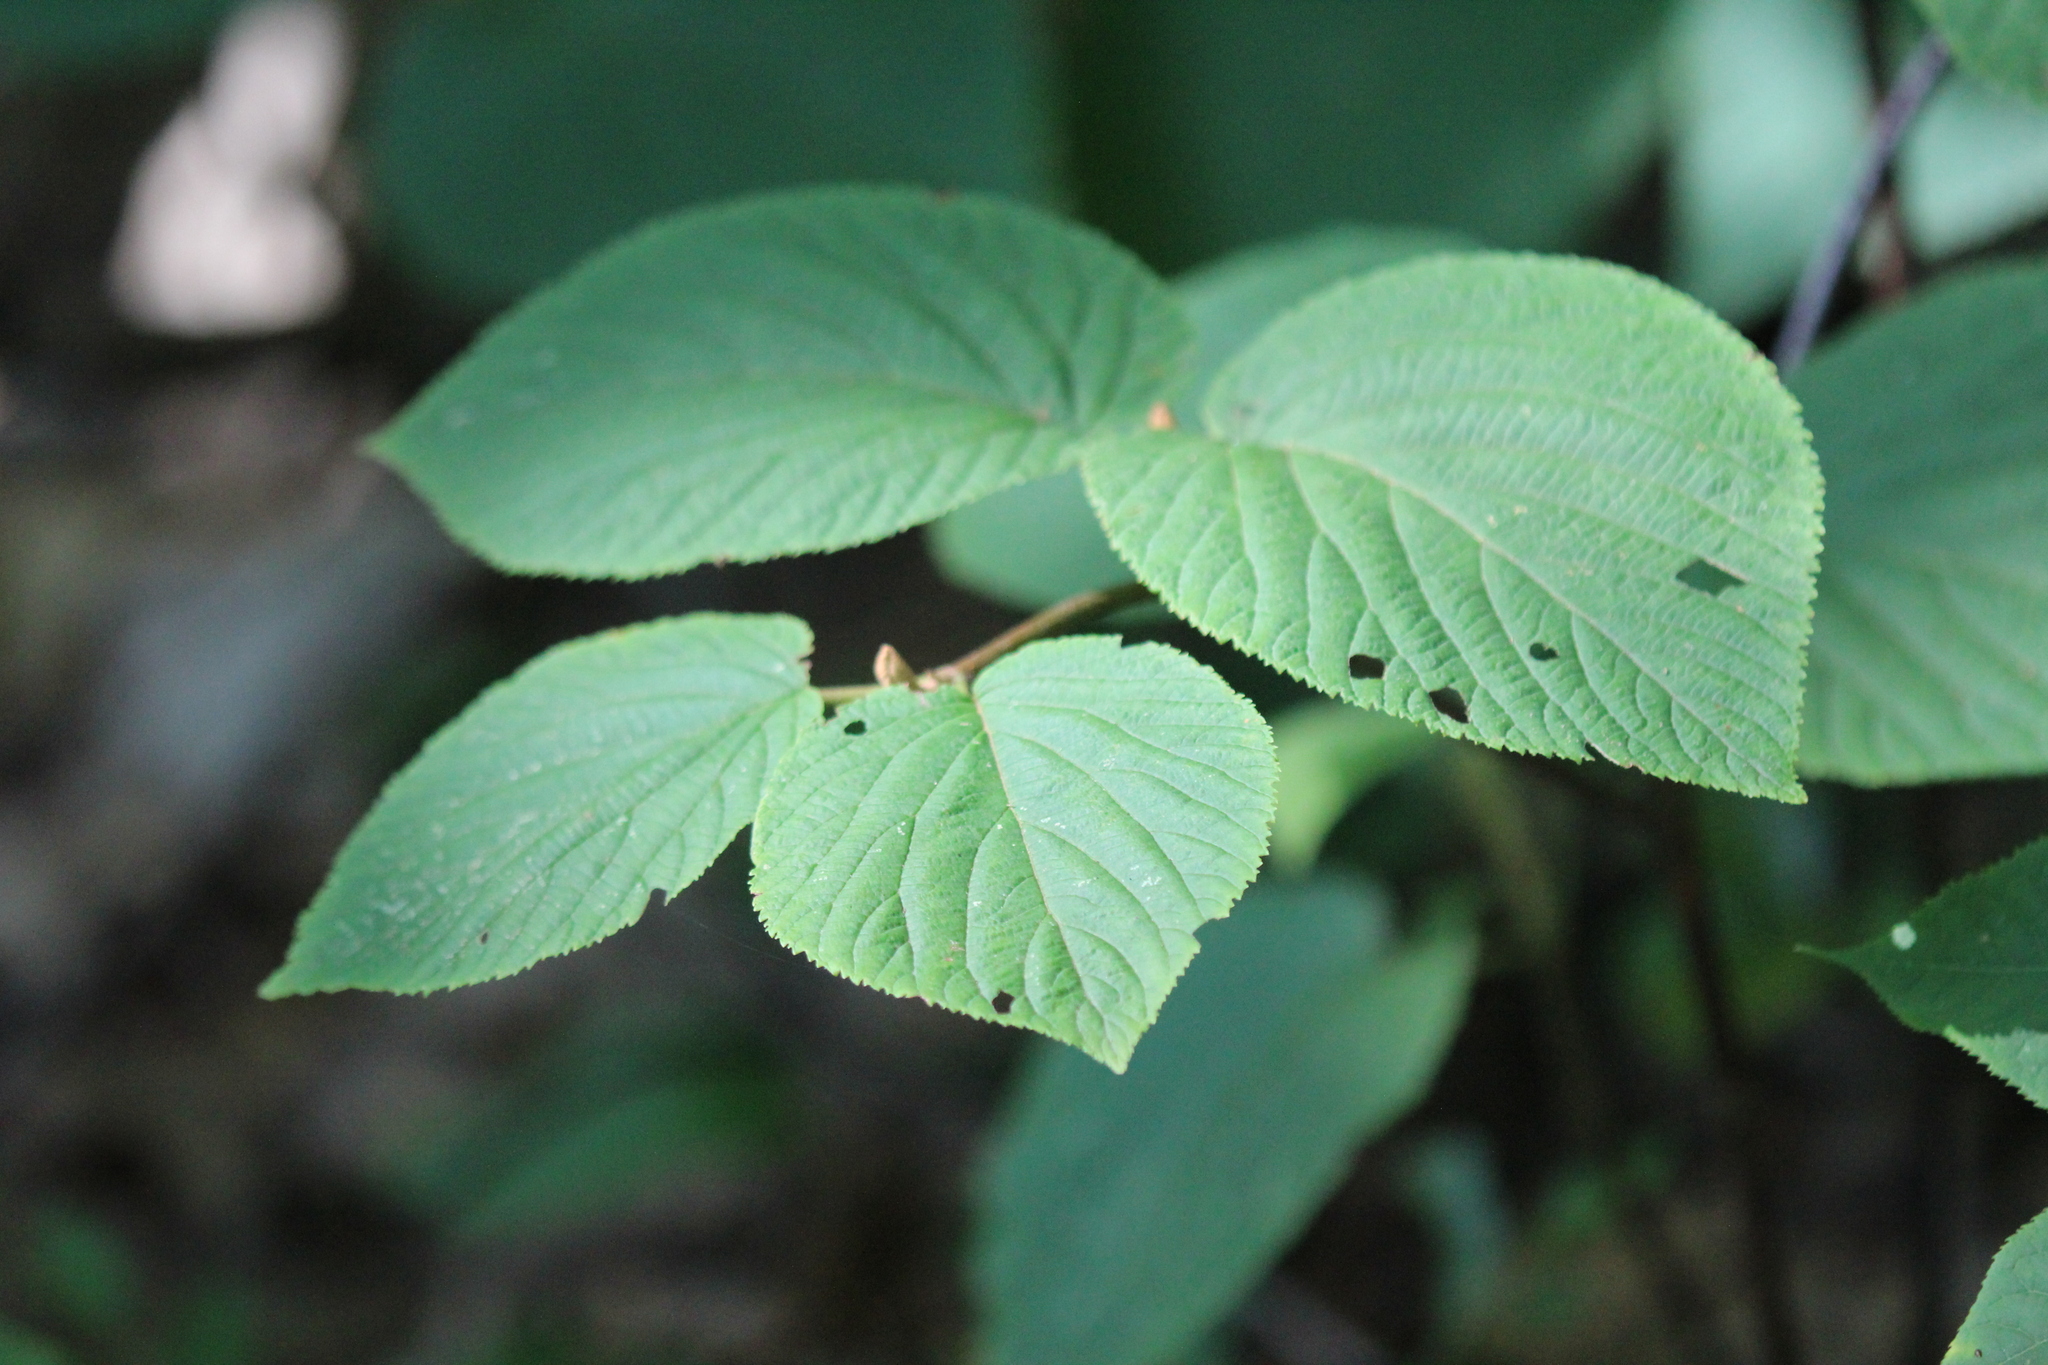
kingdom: Plantae
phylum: Tracheophyta
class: Magnoliopsida
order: Dipsacales
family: Viburnaceae
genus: Viburnum
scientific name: Viburnum lantanoides
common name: Hobblebush
